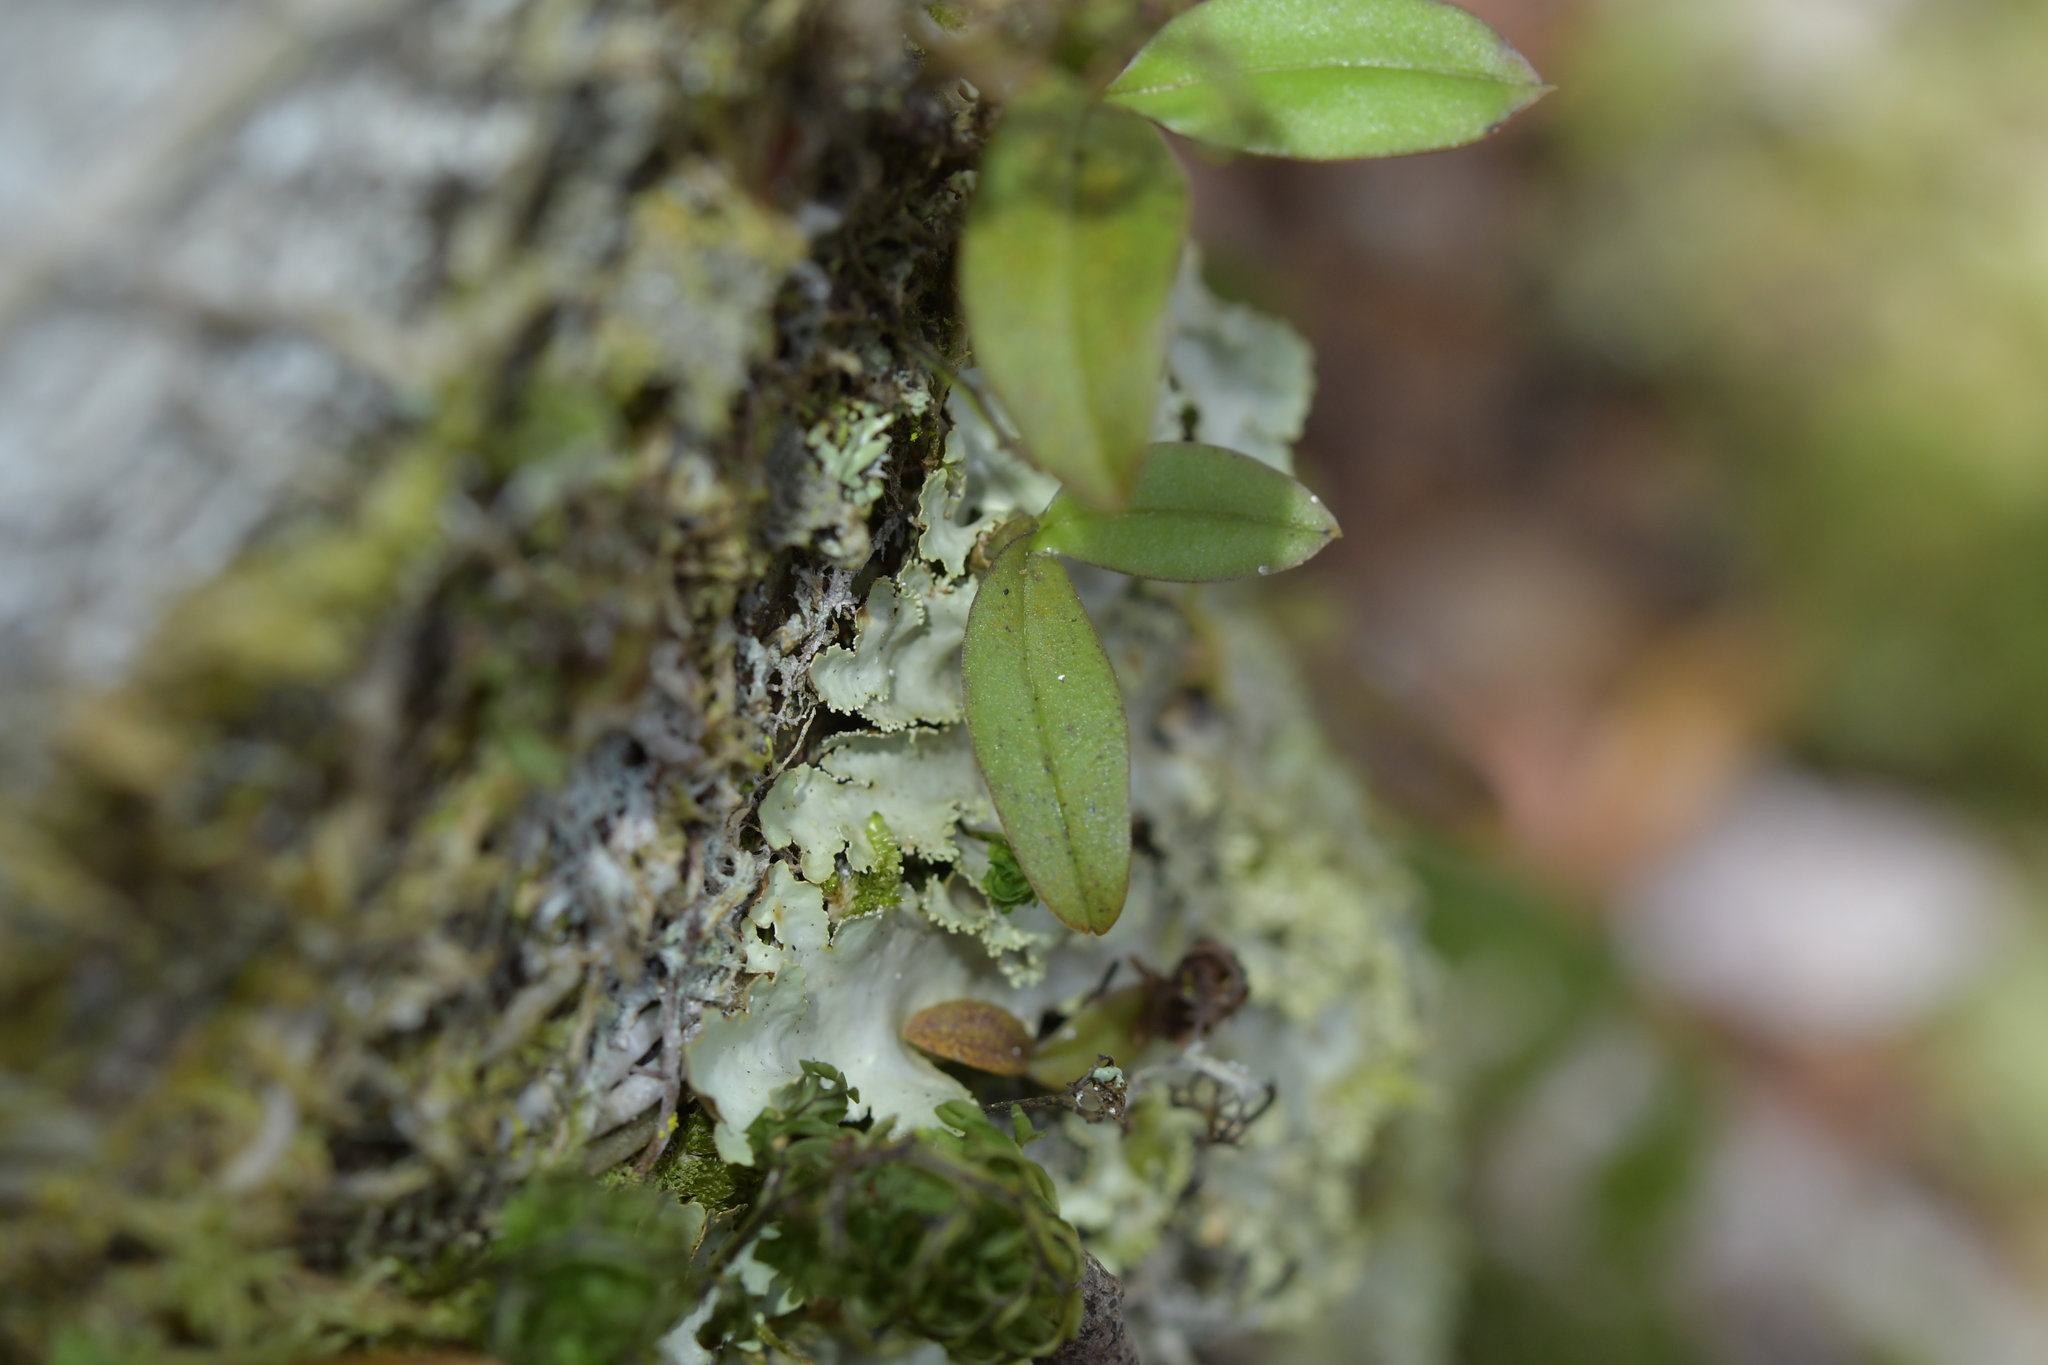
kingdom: Plantae
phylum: Tracheophyta
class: Liliopsida
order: Asparagales
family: Orchidaceae
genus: Drymoanthus
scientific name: Drymoanthus adversus
